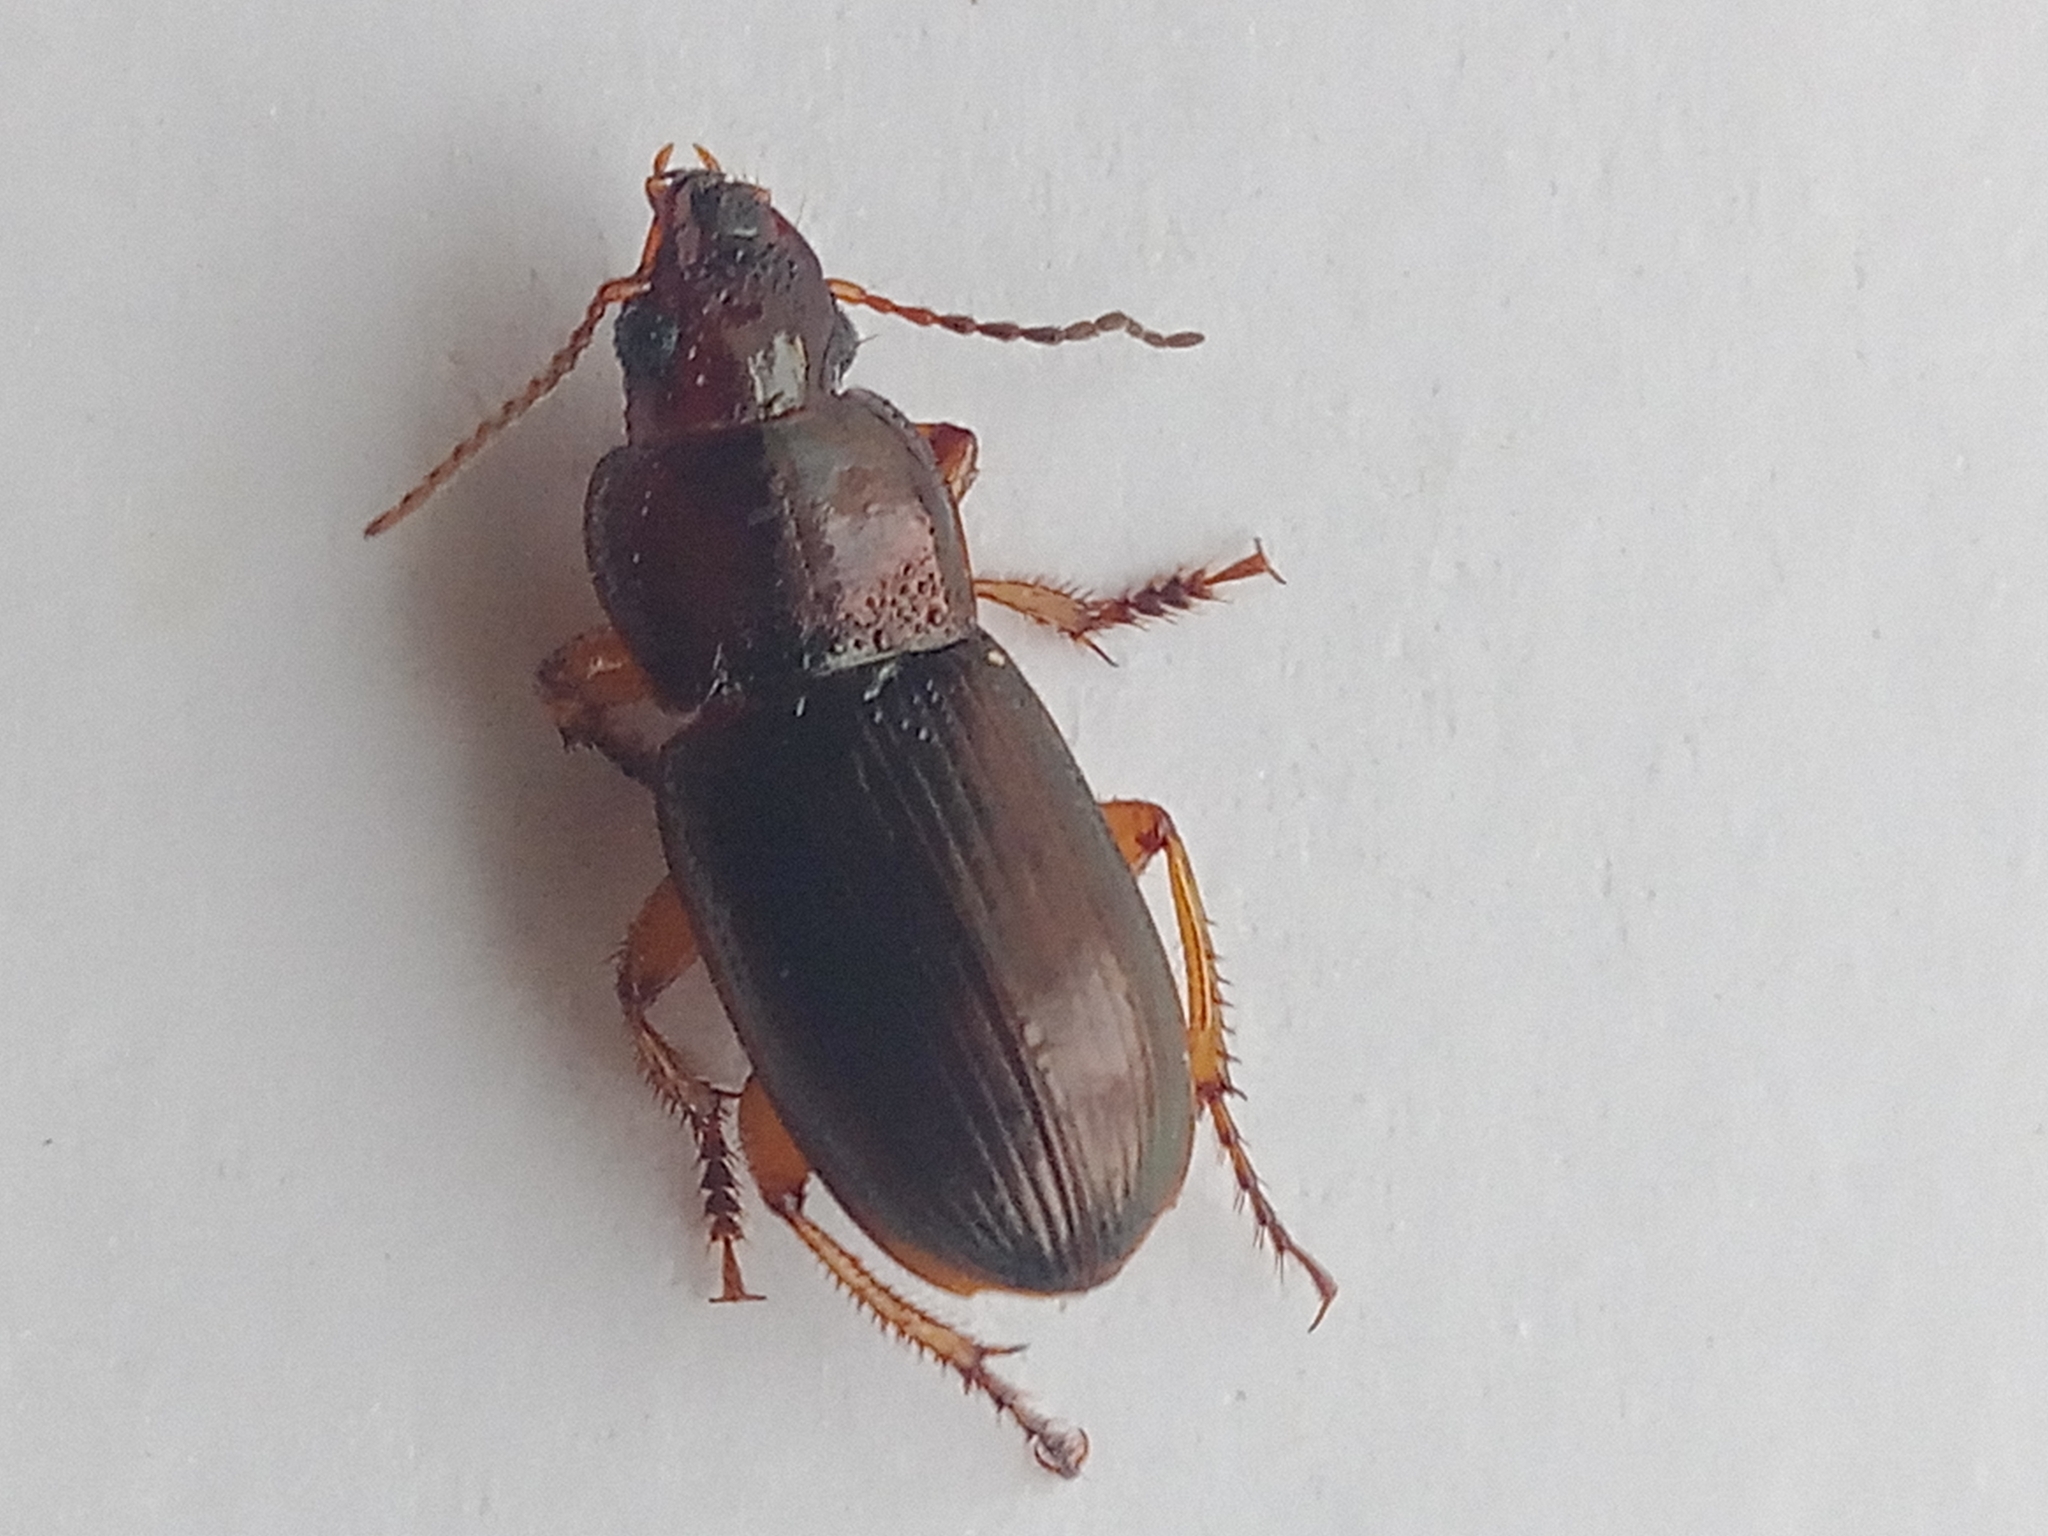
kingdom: Animalia
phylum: Arthropoda
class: Insecta
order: Coleoptera
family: Carabidae
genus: Harpalus
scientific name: Harpalus affinis
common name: Polychrome harp ground beetle
